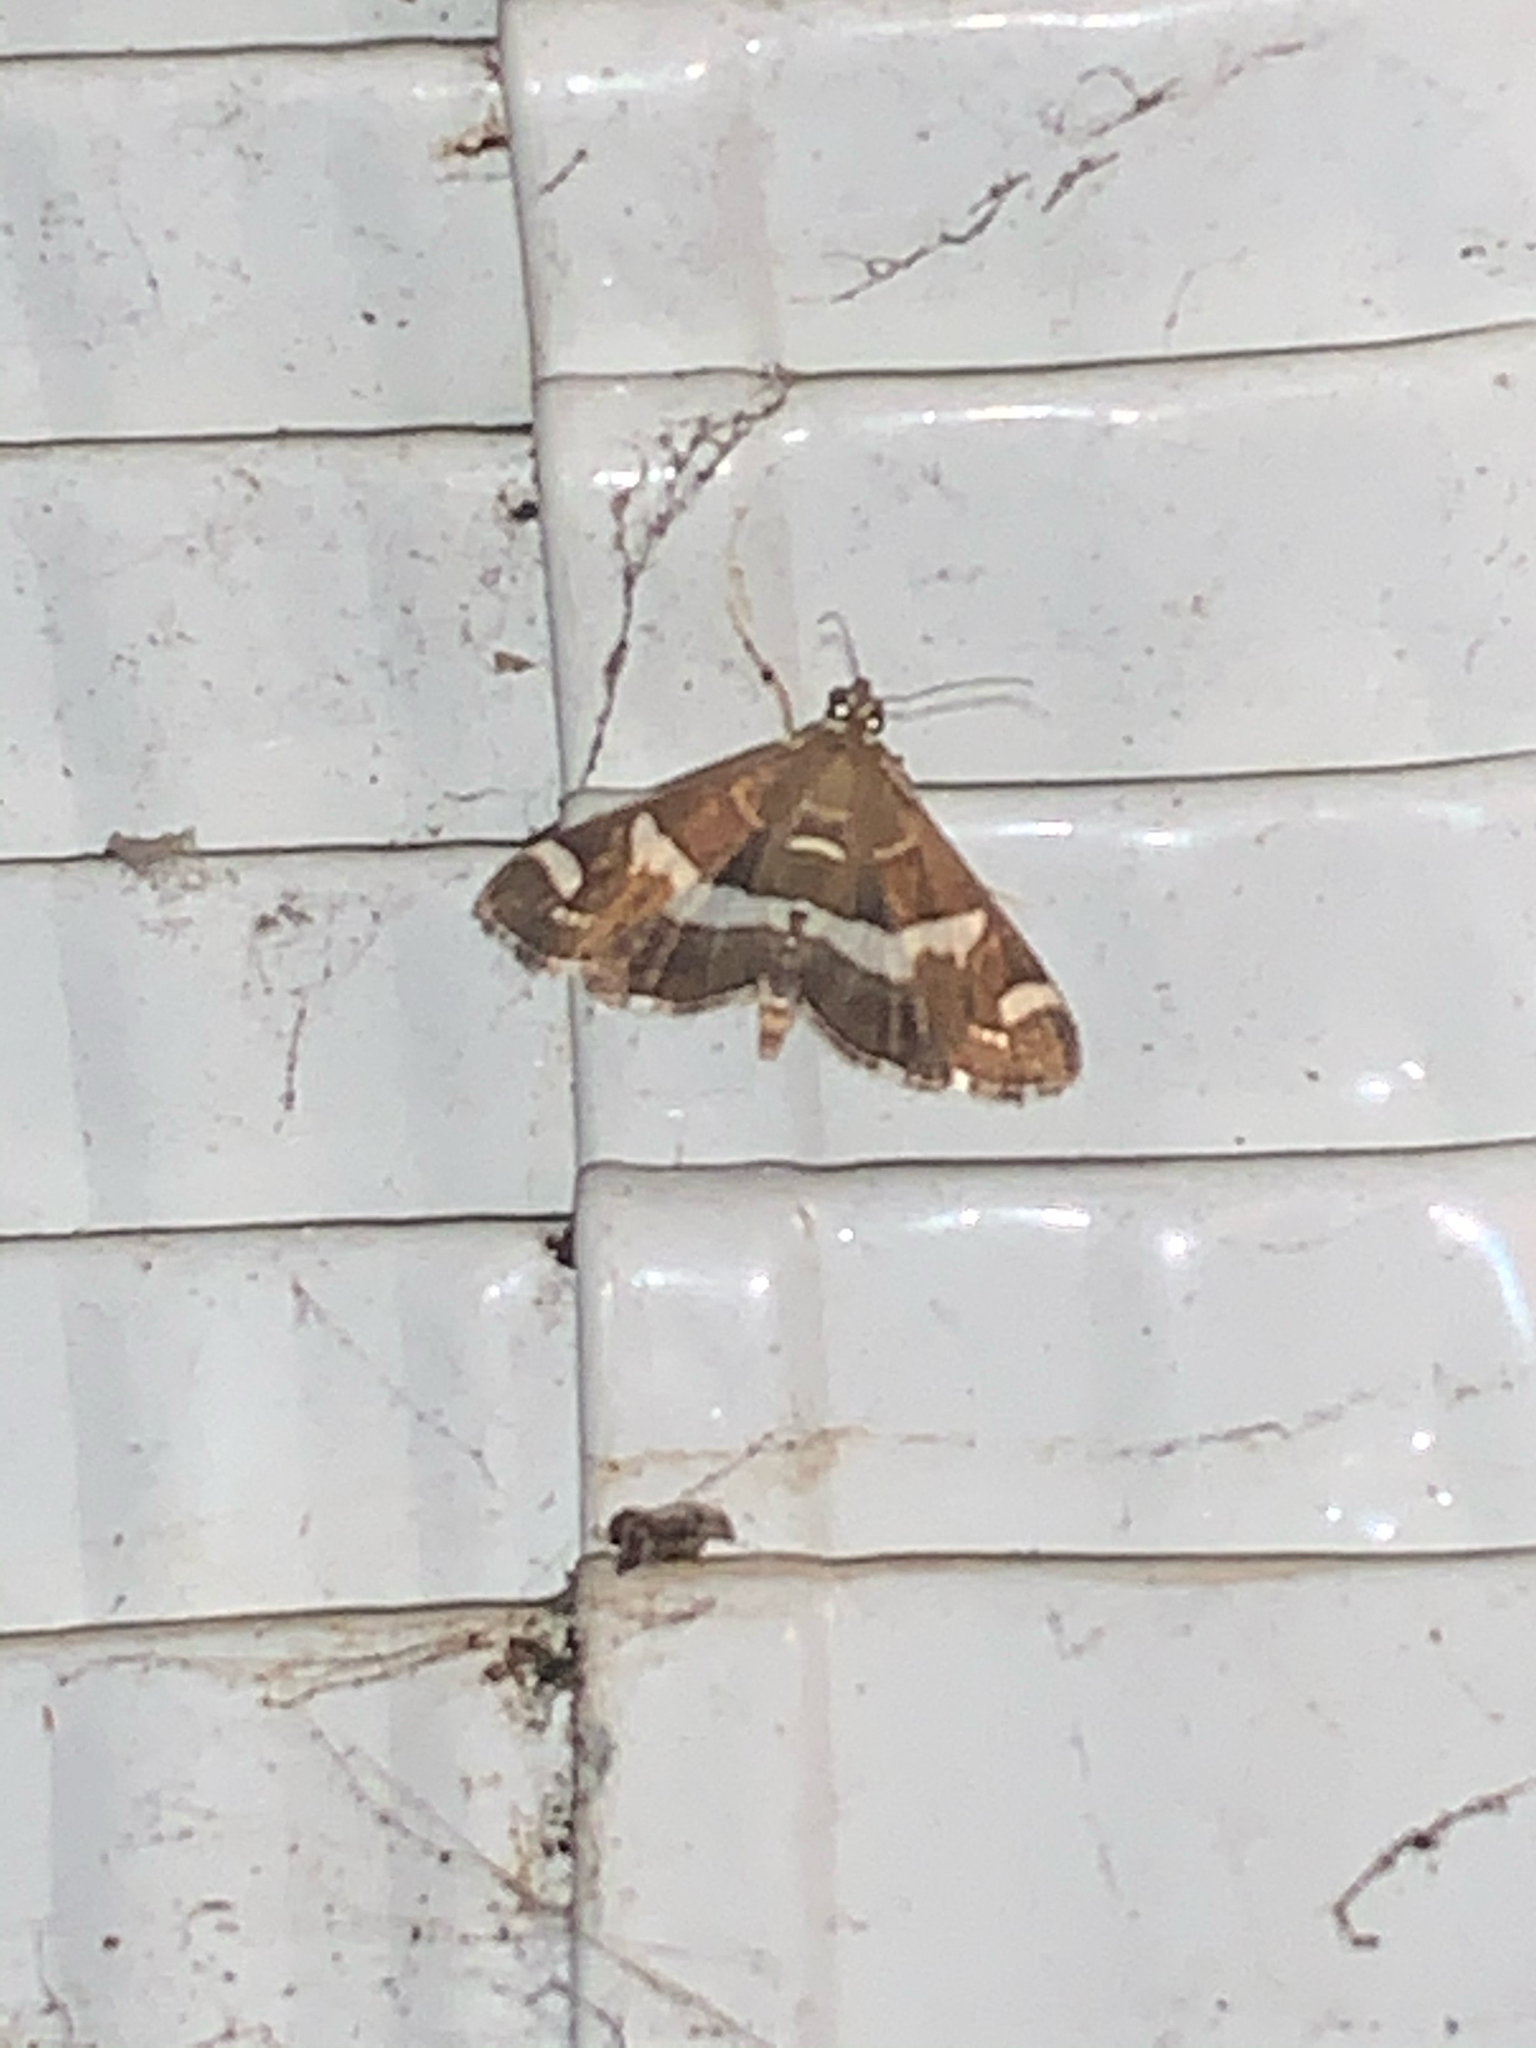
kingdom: Animalia
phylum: Arthropoda
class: Insecta
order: Lepidoptera
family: Crambidae
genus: Spoladea
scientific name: Spoladea recurvalis
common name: Beet webworm moth
